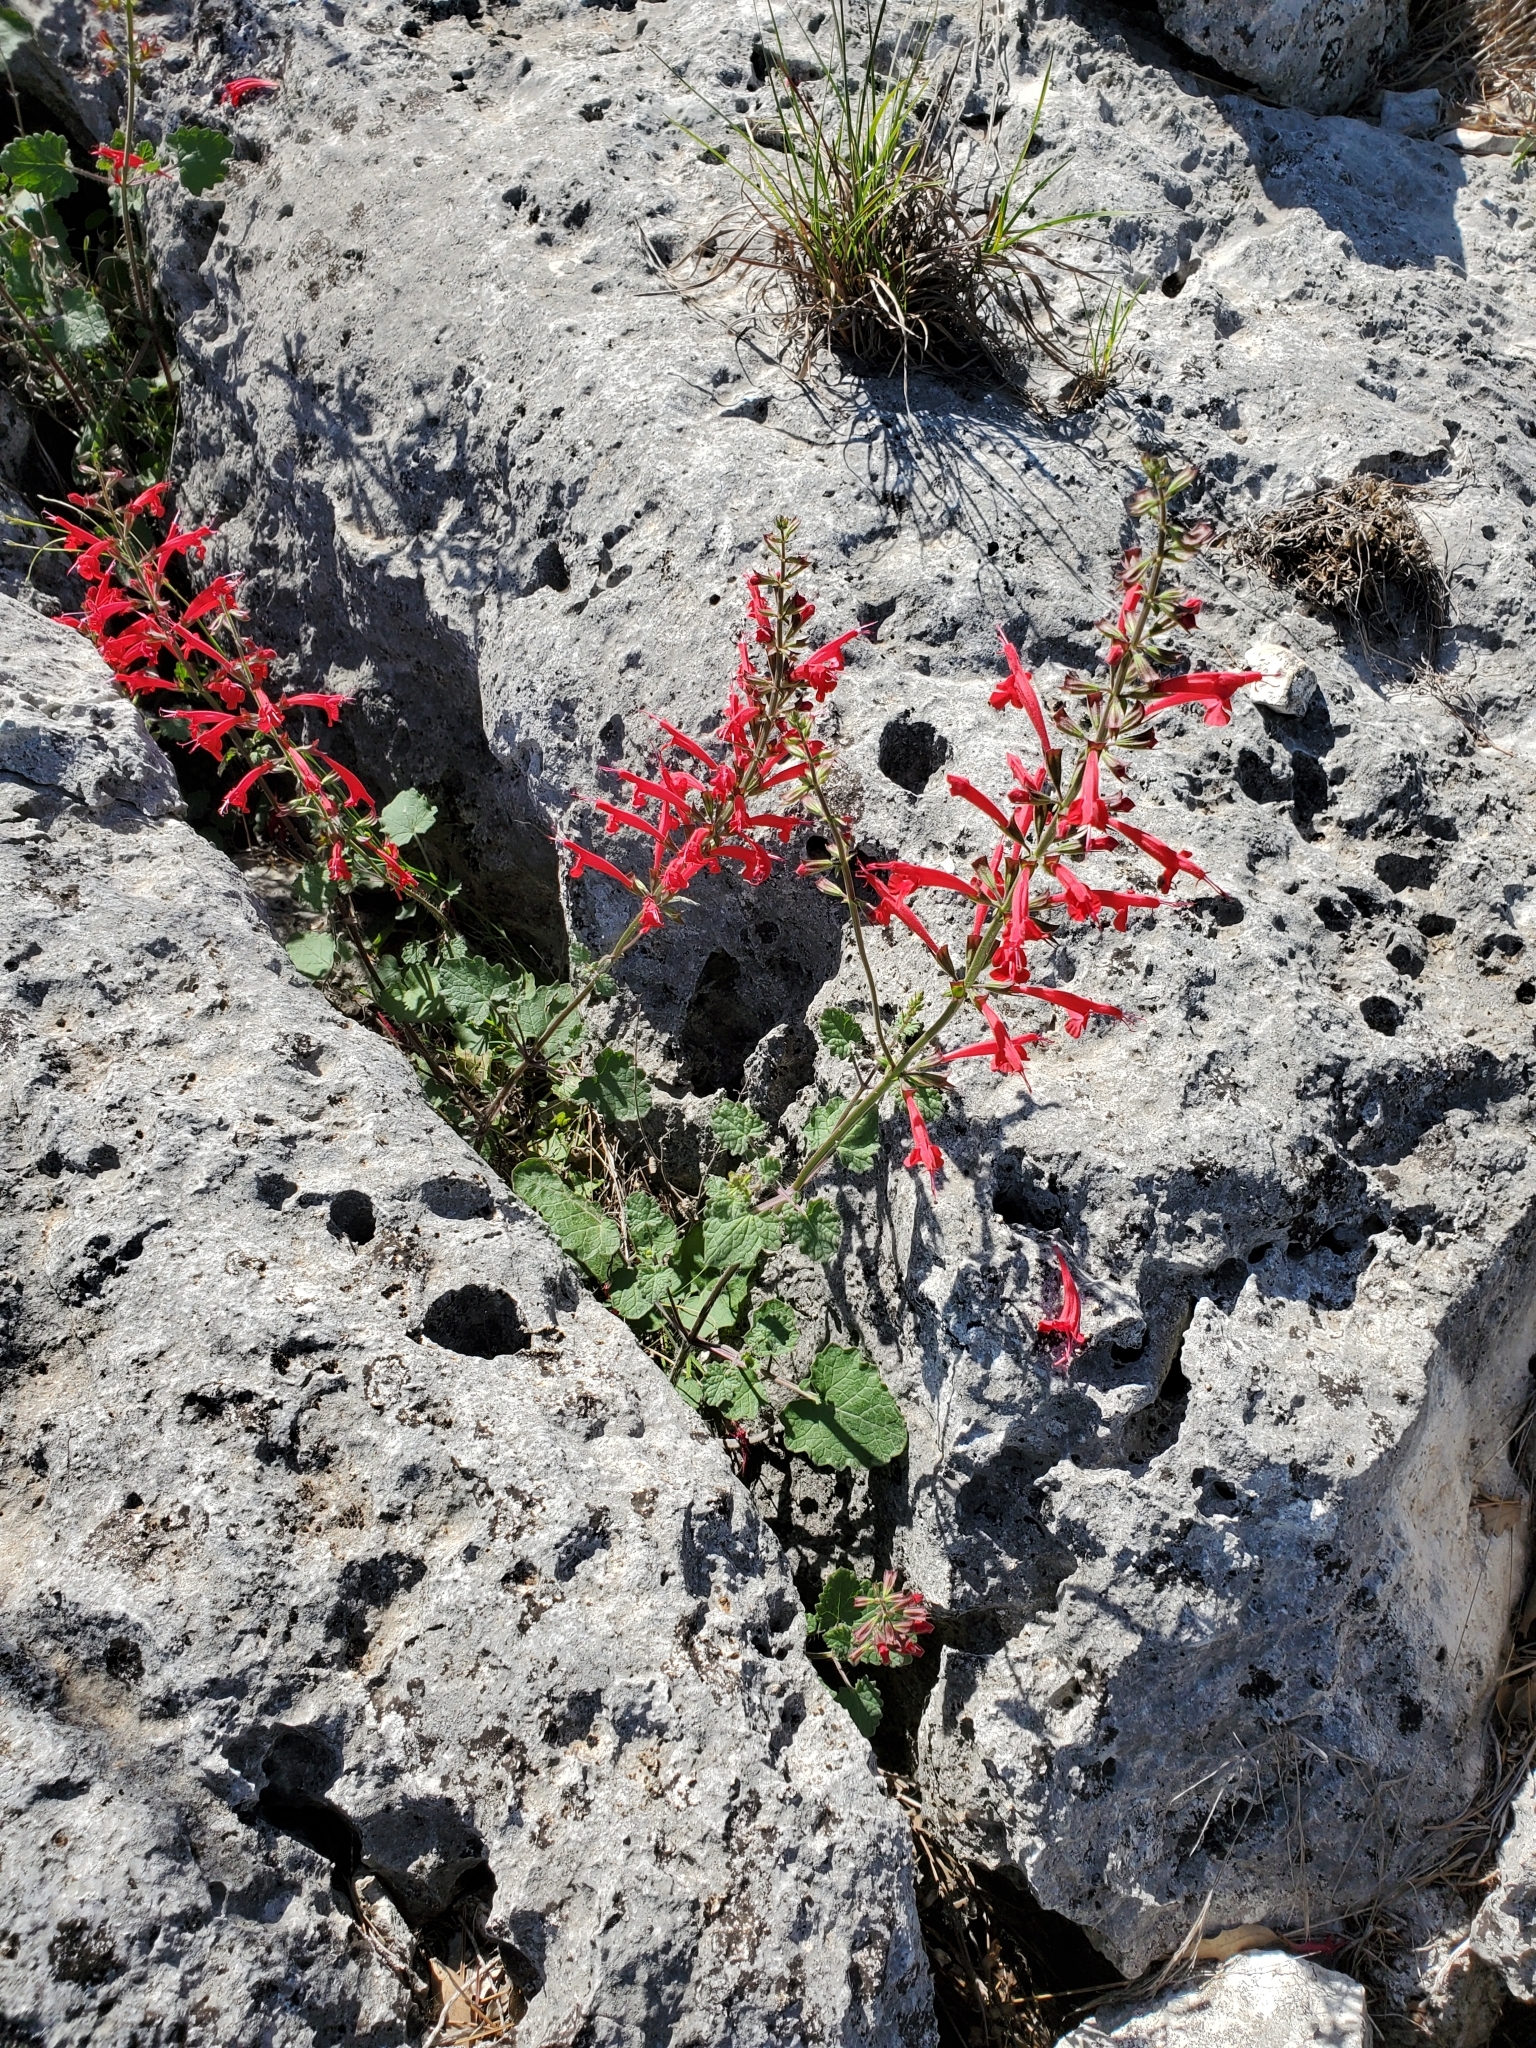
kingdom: Plantae
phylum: Tracheophyta
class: Magnoliopsida
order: Lamiales
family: Lamiaceae
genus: Salvia
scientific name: Salvia roemeriana
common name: Cedar sage
